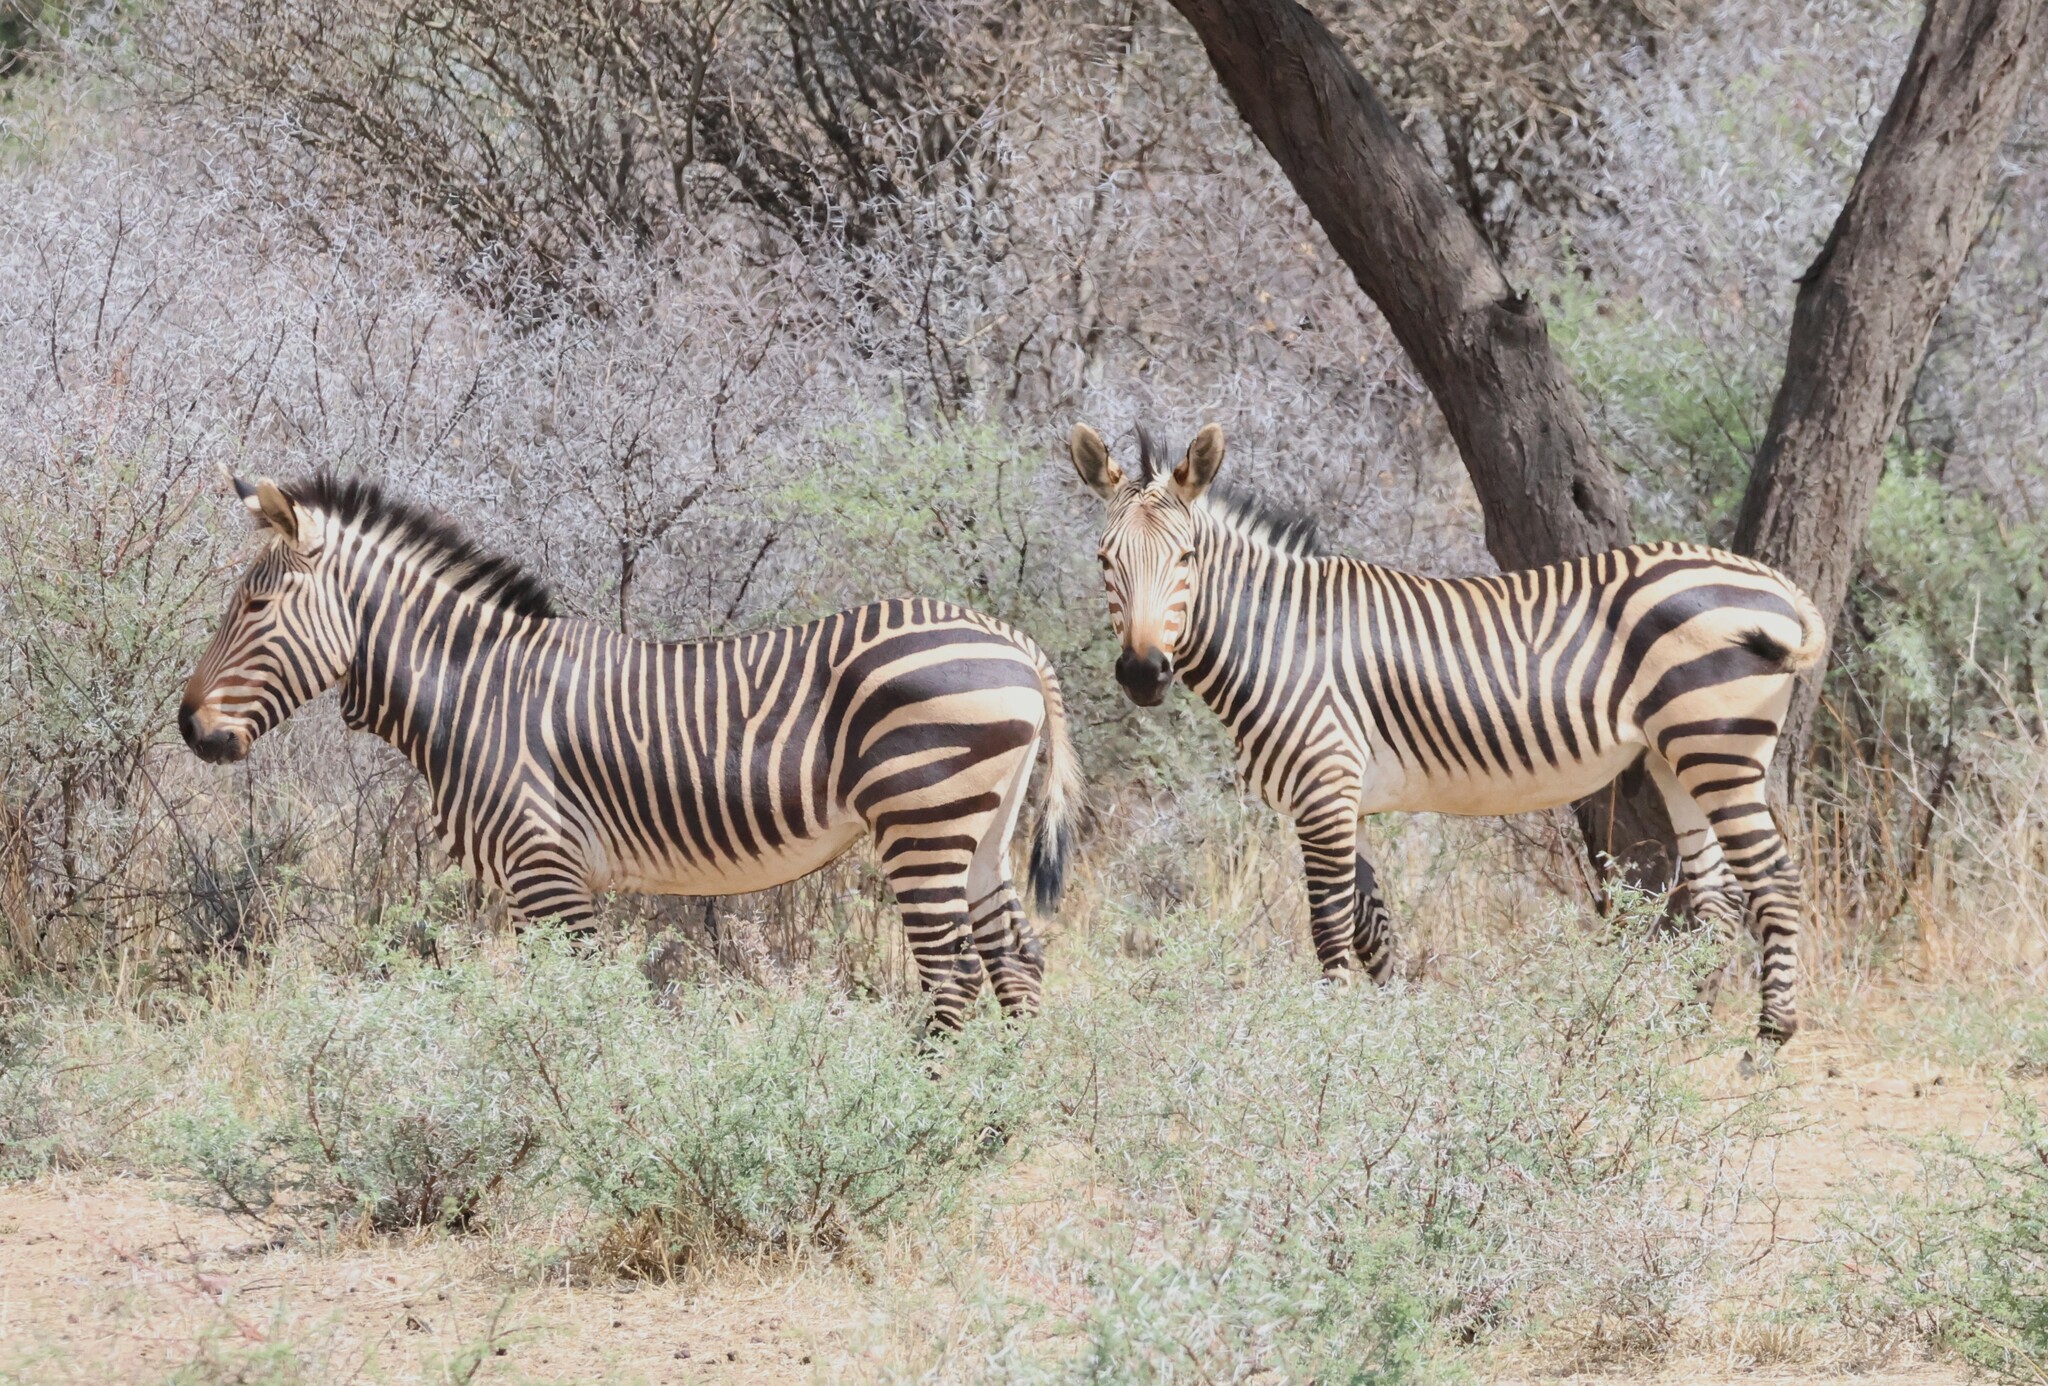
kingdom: Animalia
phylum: Chordata
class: Mammalia
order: Perissodactyla
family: Equidae
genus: Equus
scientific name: Equus hartmannae
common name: Hartmann's mountain zebra
